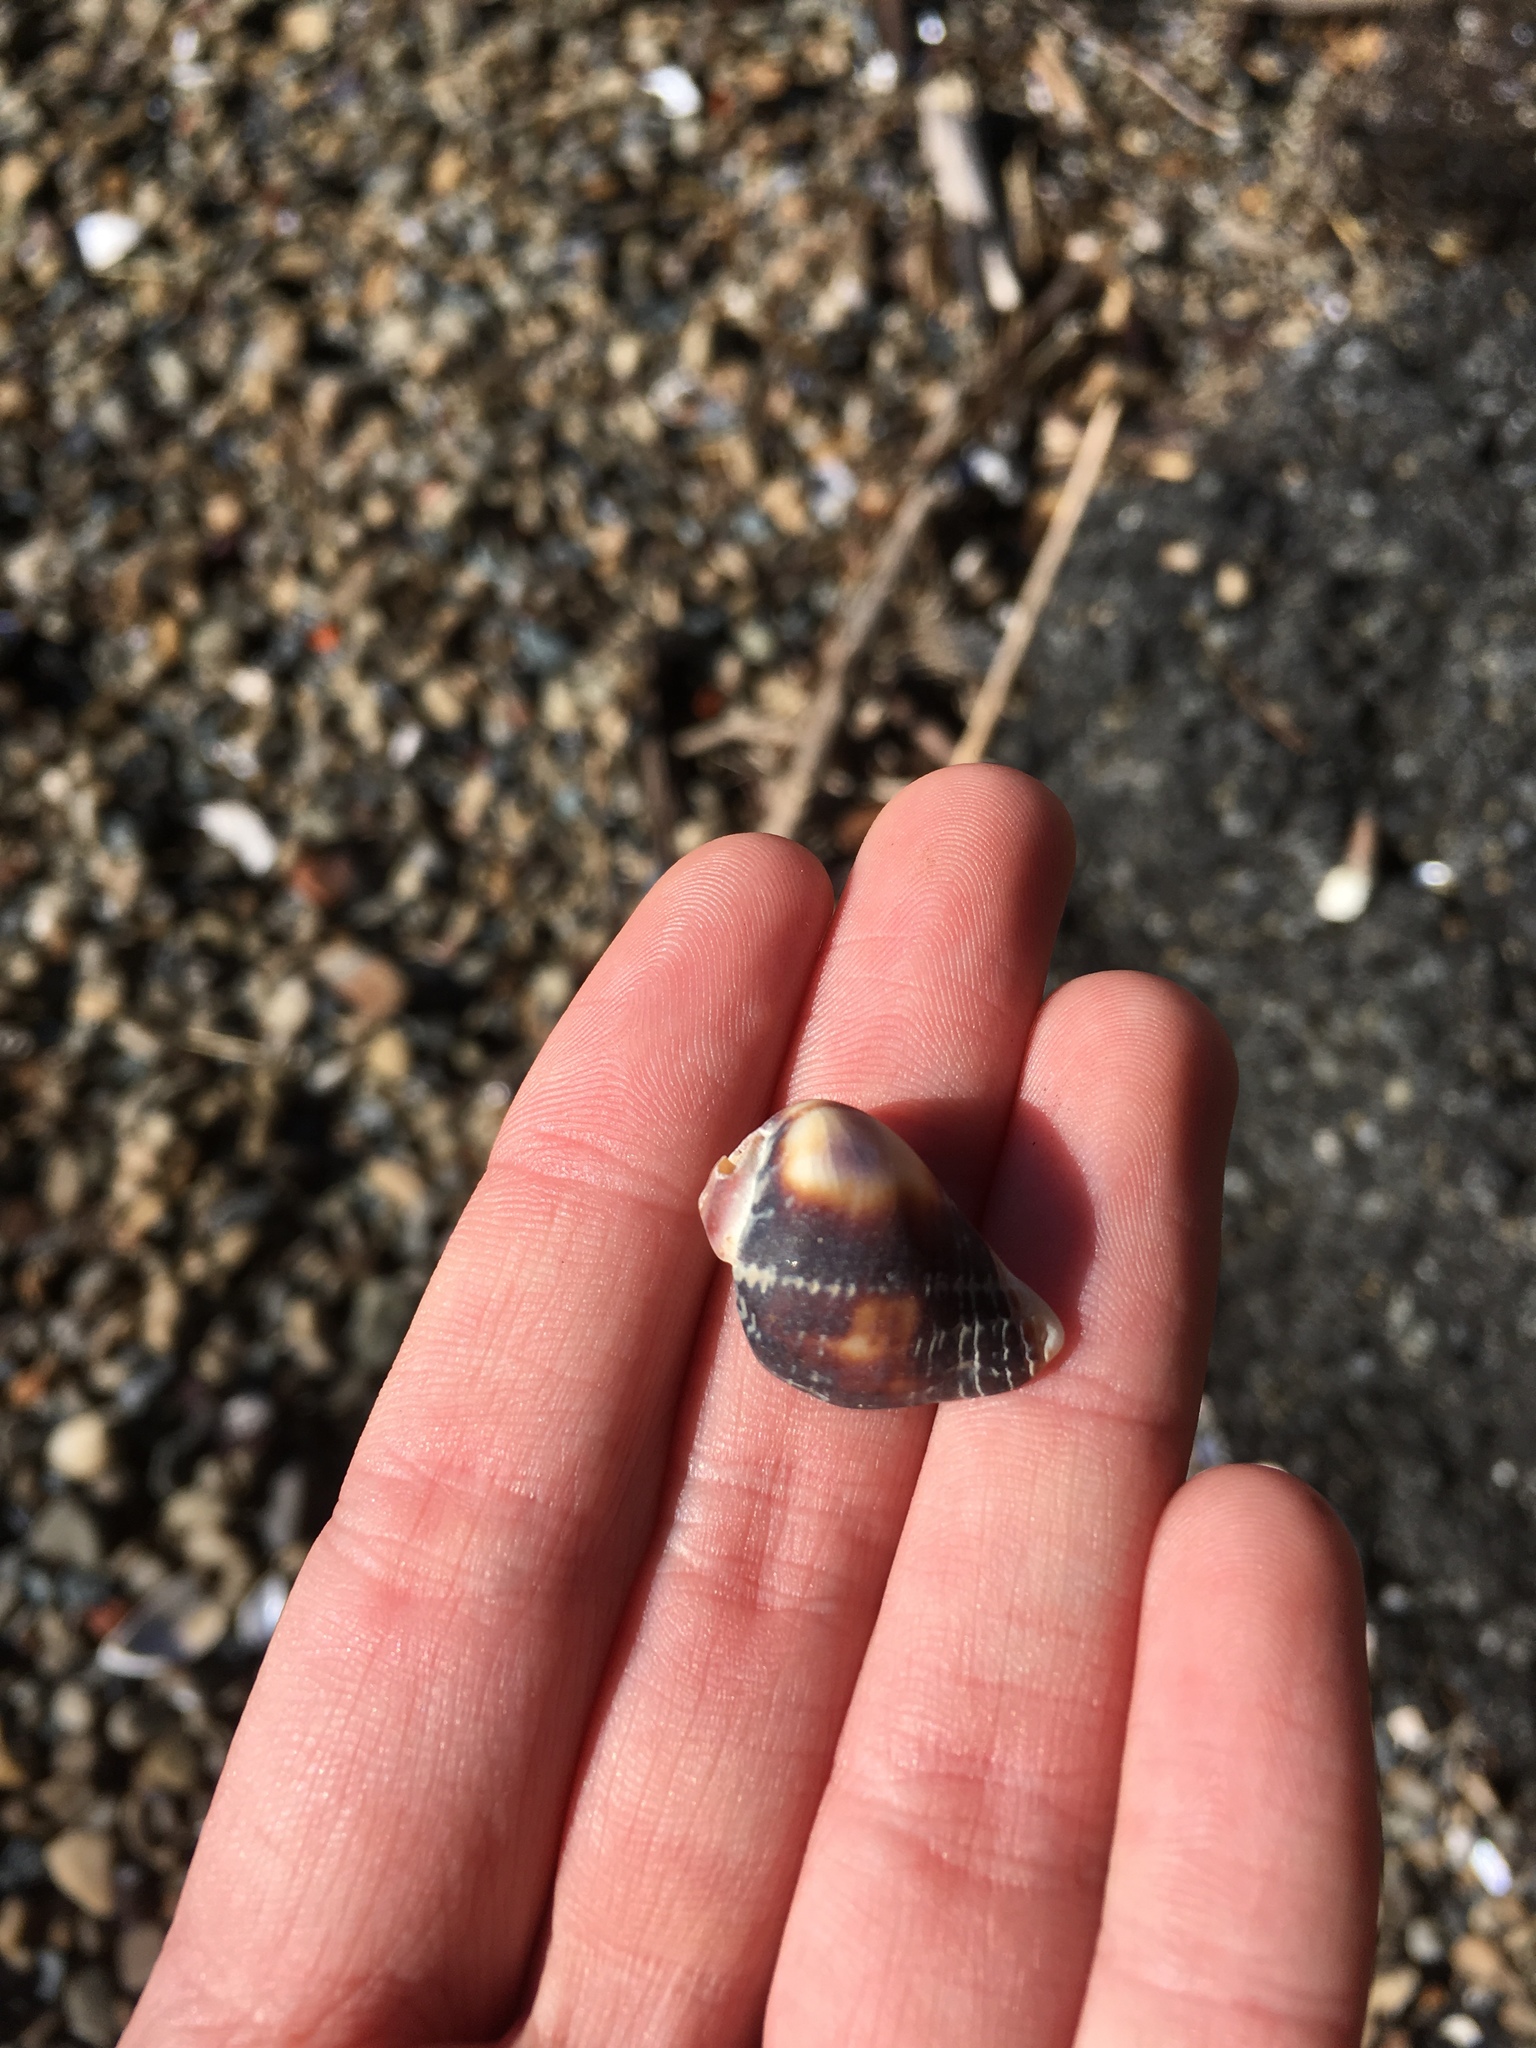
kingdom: Animalia
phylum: Mollusca
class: Gastropoda
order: Neogastropoda
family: Muricidae
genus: Haustrum
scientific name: Haustrum haustorium
